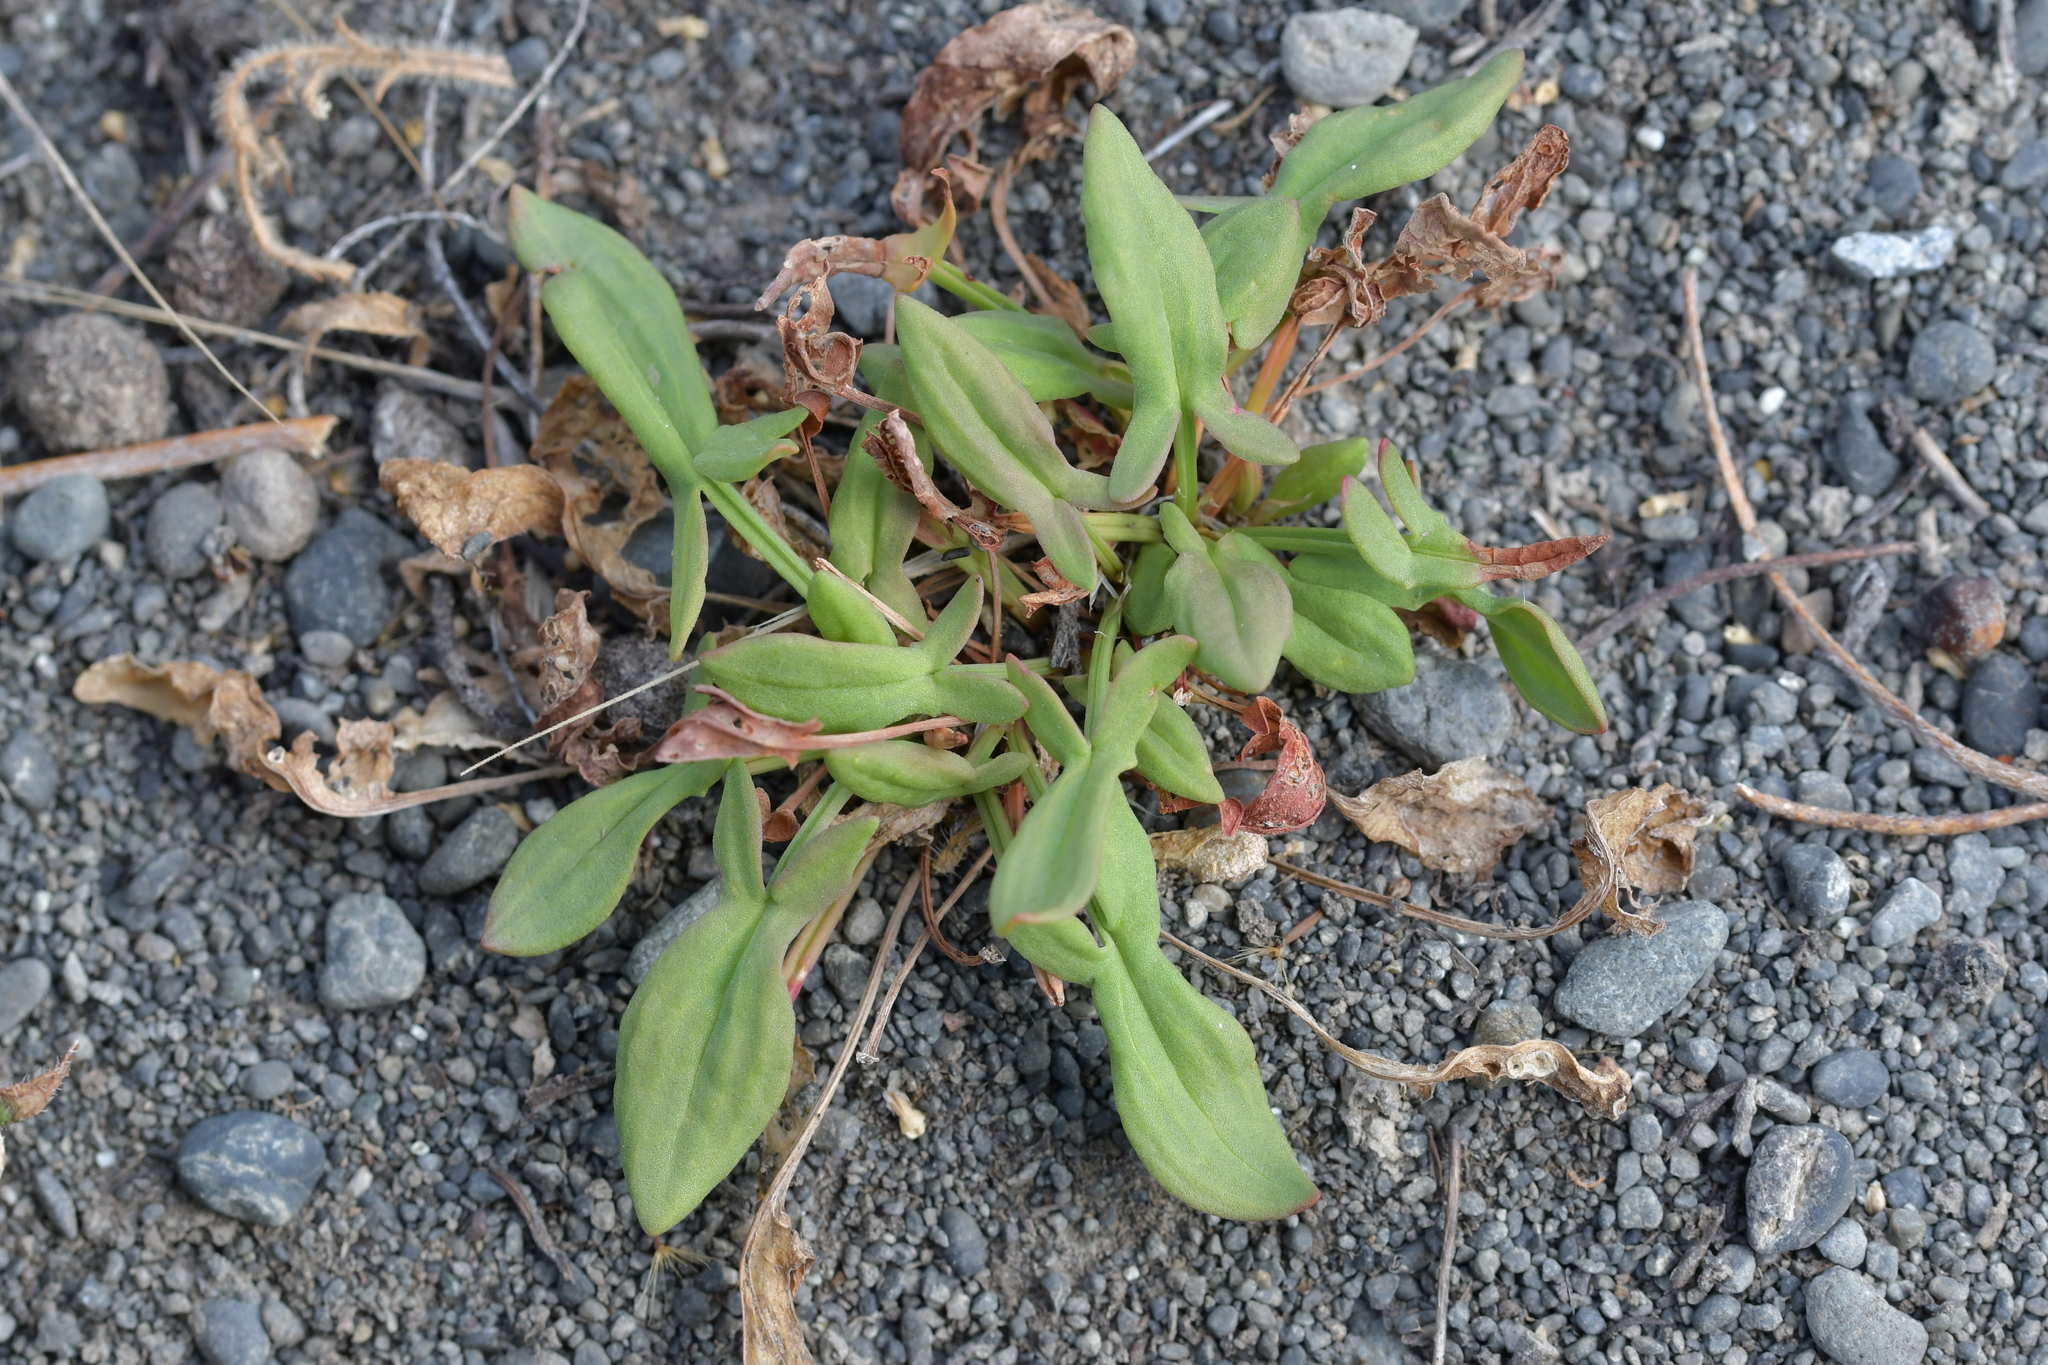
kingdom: Plantae
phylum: Tracheophyta
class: Magnoliopsida
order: Caryophyllales
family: Polygonaceae
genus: Rumex
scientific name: Rumex acetosella
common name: Common sheep sorrel
